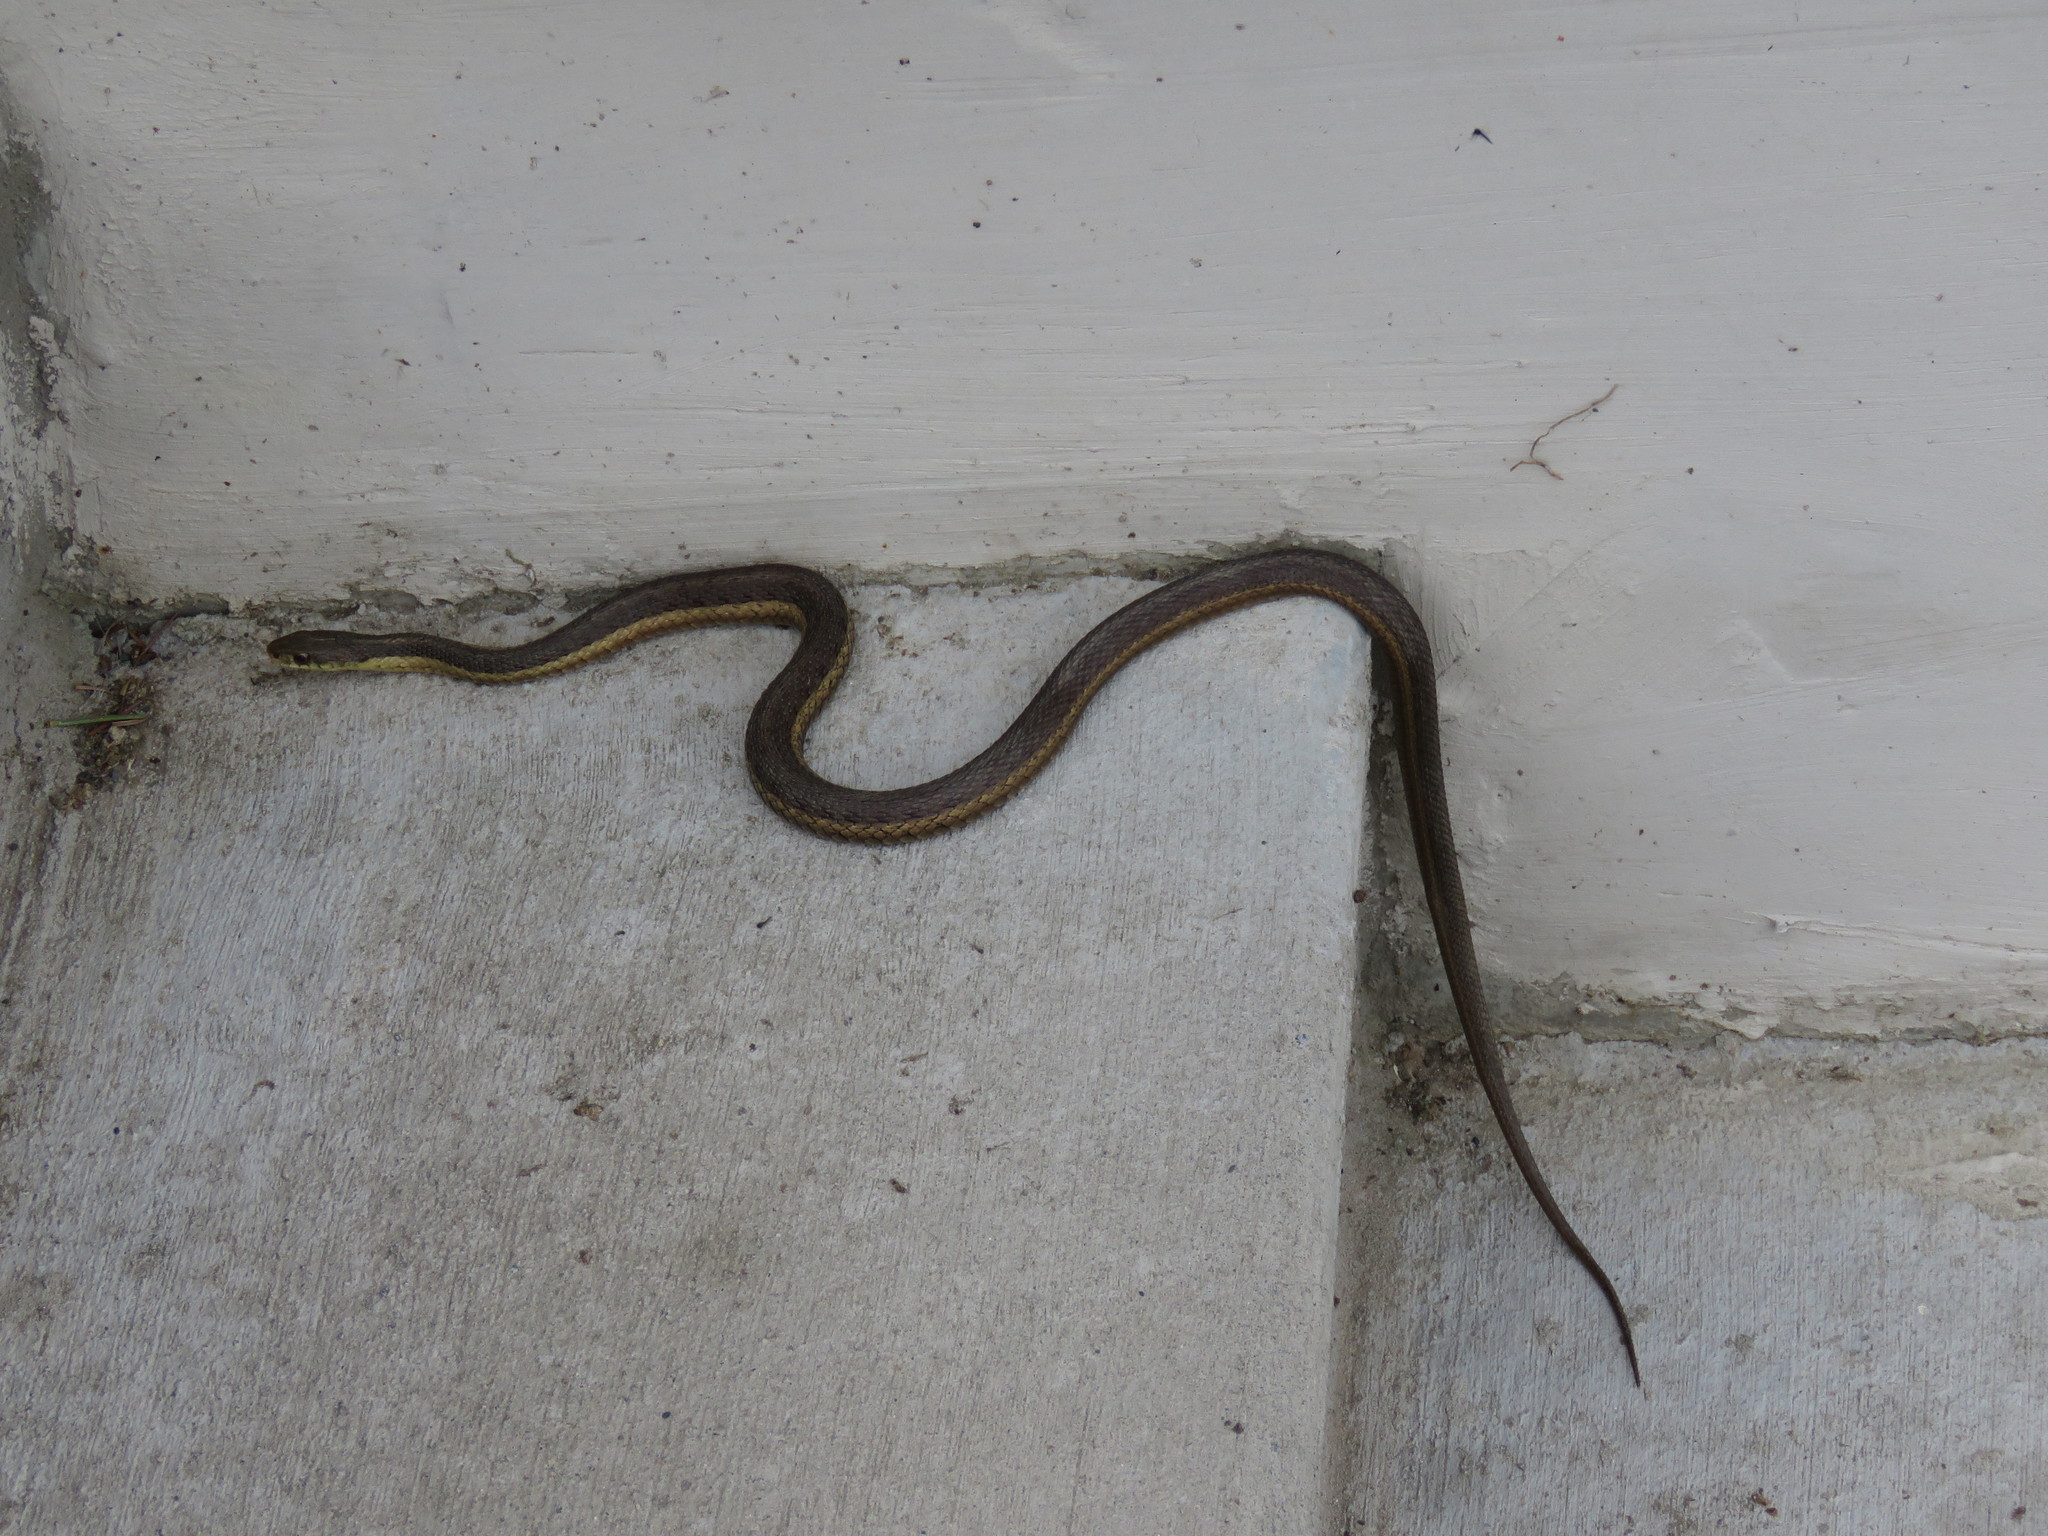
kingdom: Animalia
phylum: Chordata
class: Squamata
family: Colubridae
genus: Thamnophis
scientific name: Thamnophis sirtalis
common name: Common garter snake
